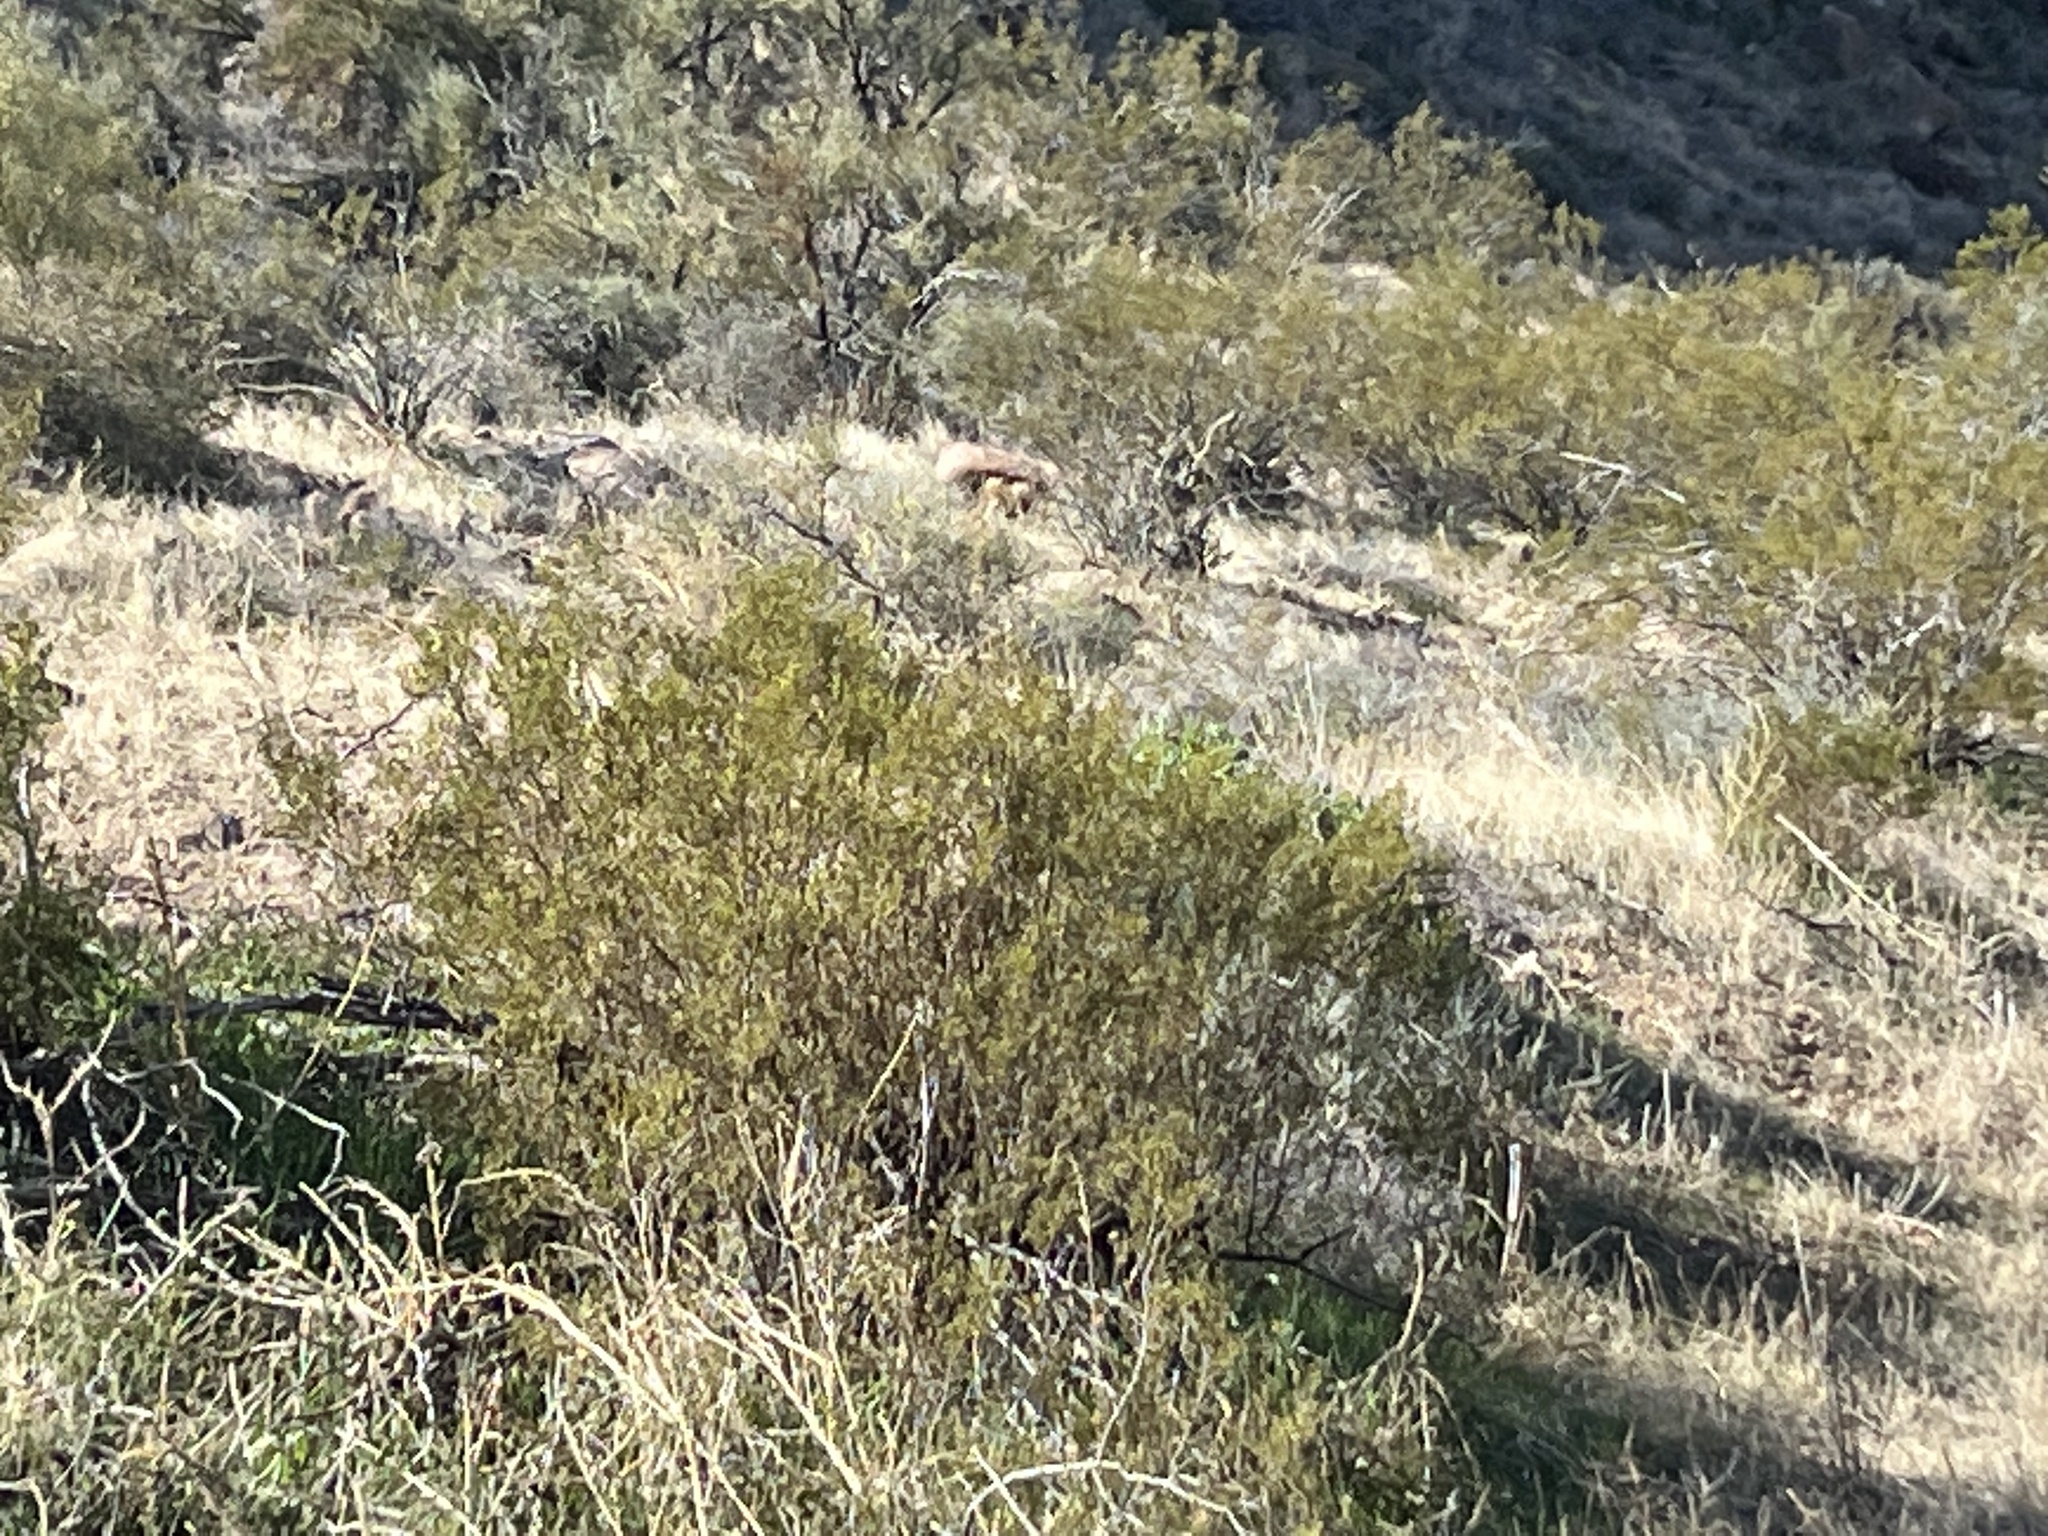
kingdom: Plantae
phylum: Tracheophyta
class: Magnoliopsida
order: Zygophyllales
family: Zygophyllaceae
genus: Larrea
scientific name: Larrea tridentata
